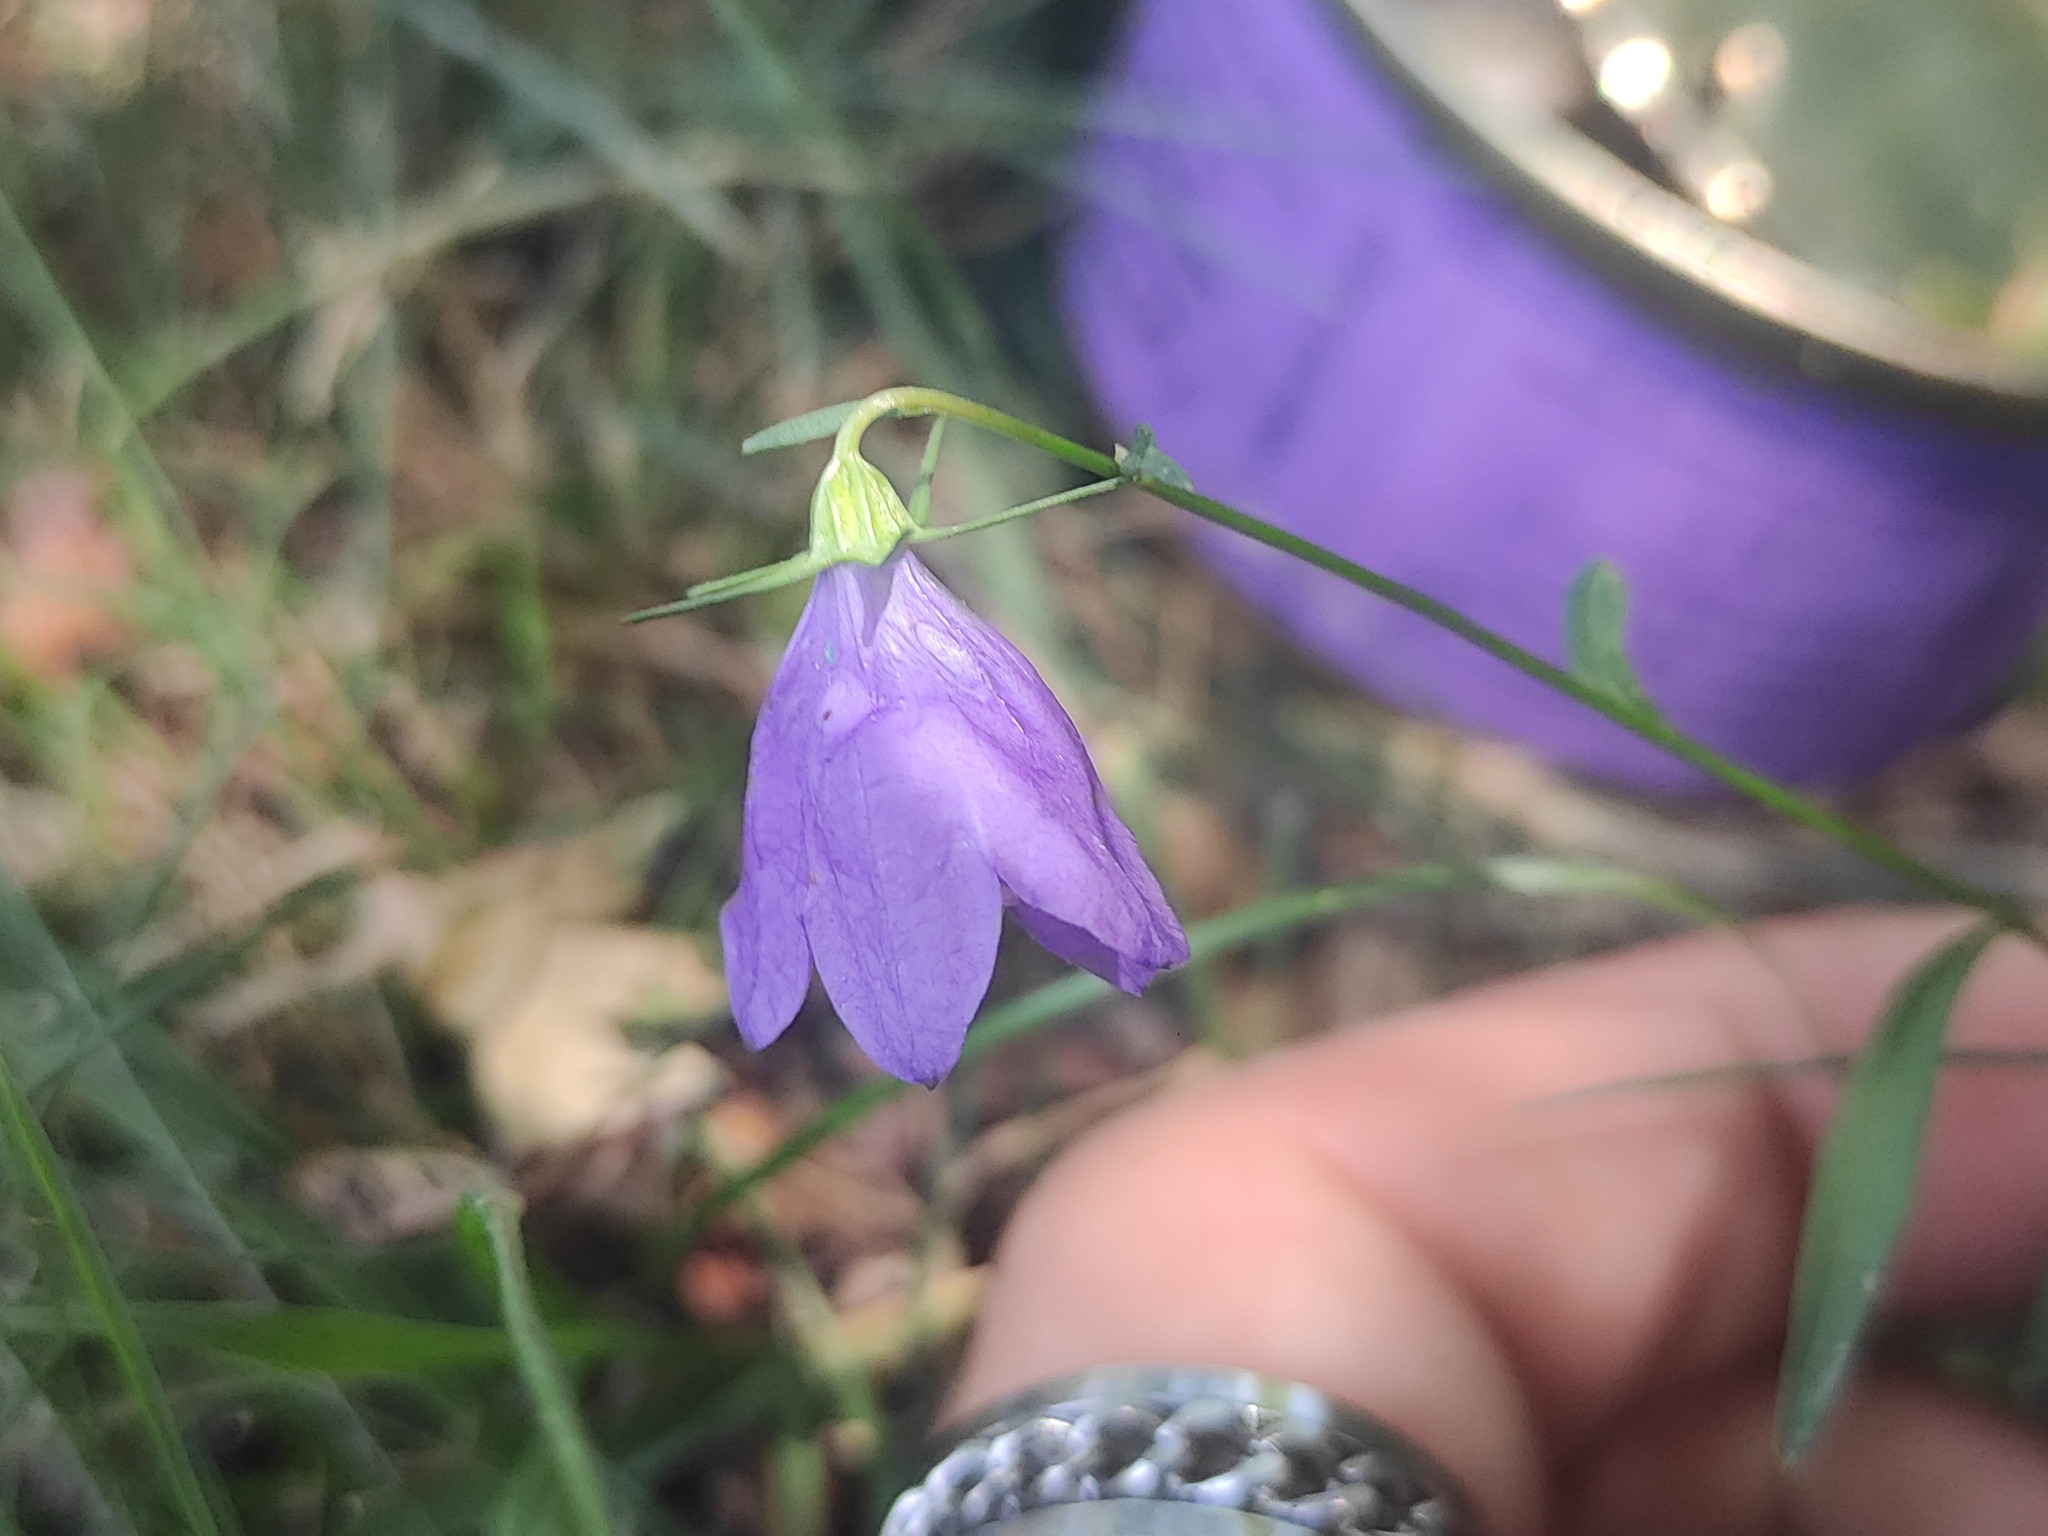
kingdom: Plantae
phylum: Tracheophyta
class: Magnoliopsida
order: Asterales
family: Campanulaceae
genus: Campanula
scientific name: Campanula cochleariifolia
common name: Fairies'-thimbles
